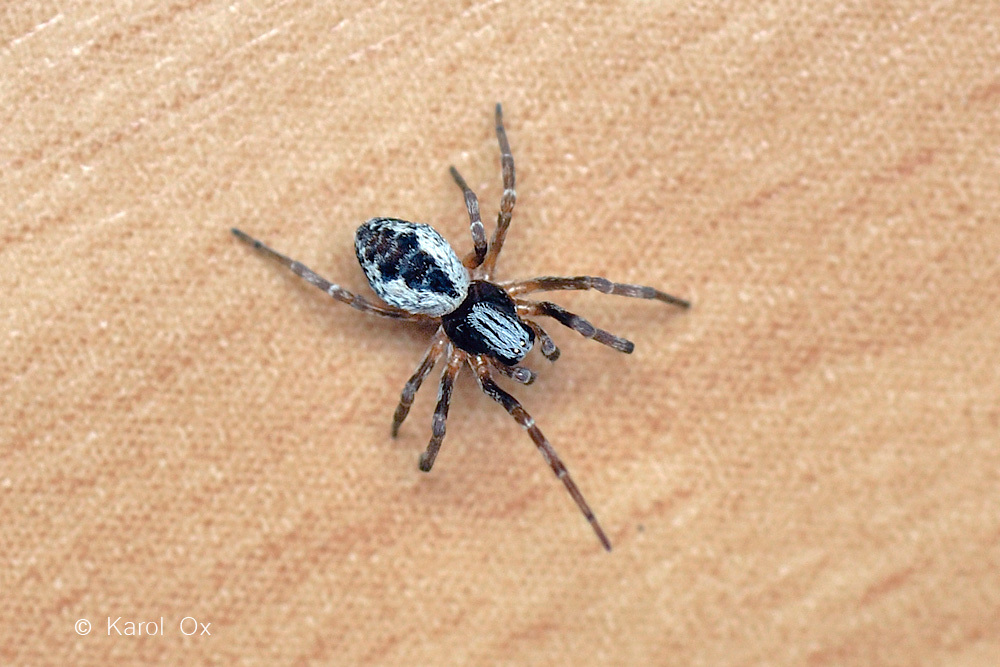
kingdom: Animalia
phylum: Arthropoda
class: Arachnida
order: Araneae
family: Dictynidae
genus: Brigittea
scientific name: Brigittea civica
